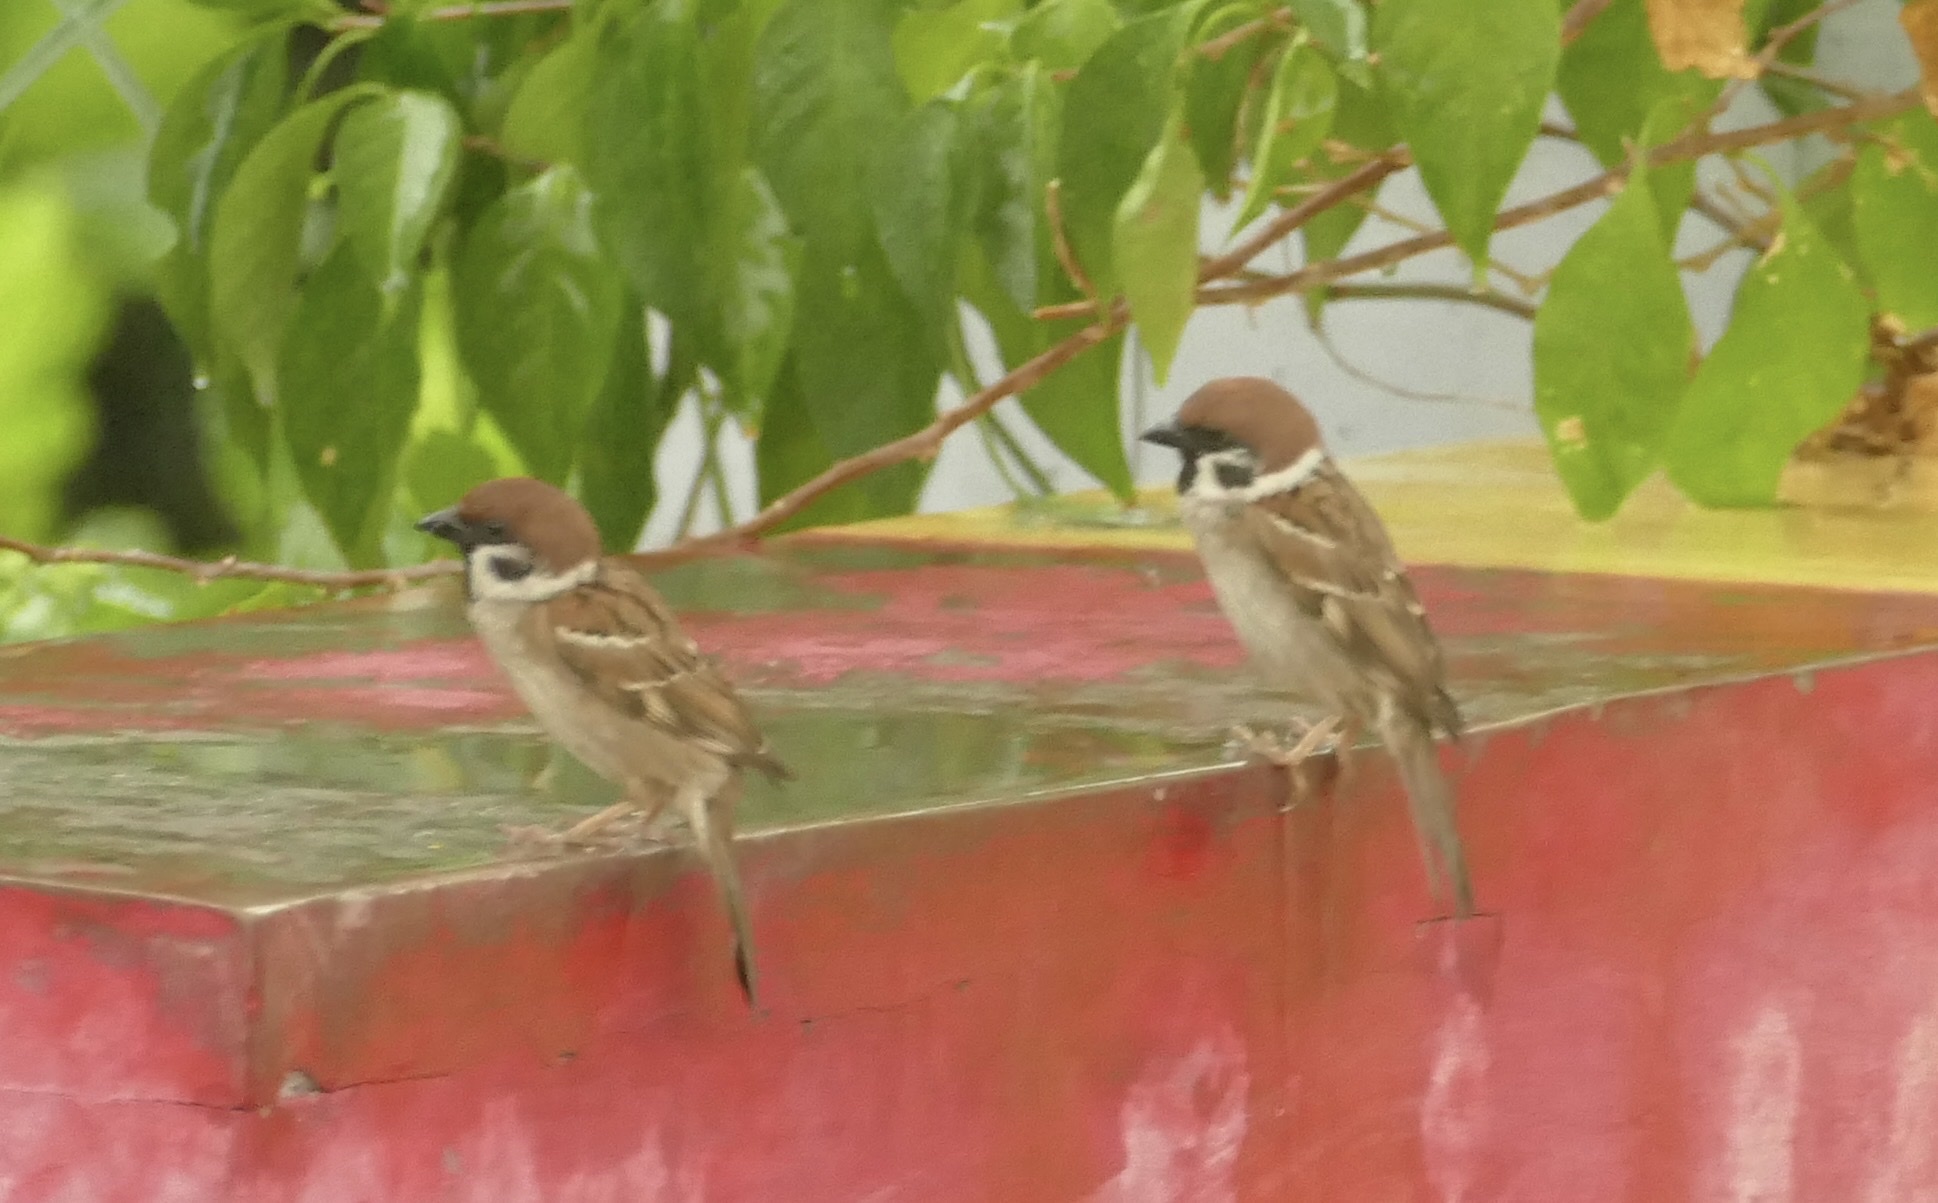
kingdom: Animalia
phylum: Chordata
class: Aves
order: Passeriformes
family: Passeridae
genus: Passer
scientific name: Passer montanus
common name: Eurasian tree sparrow
